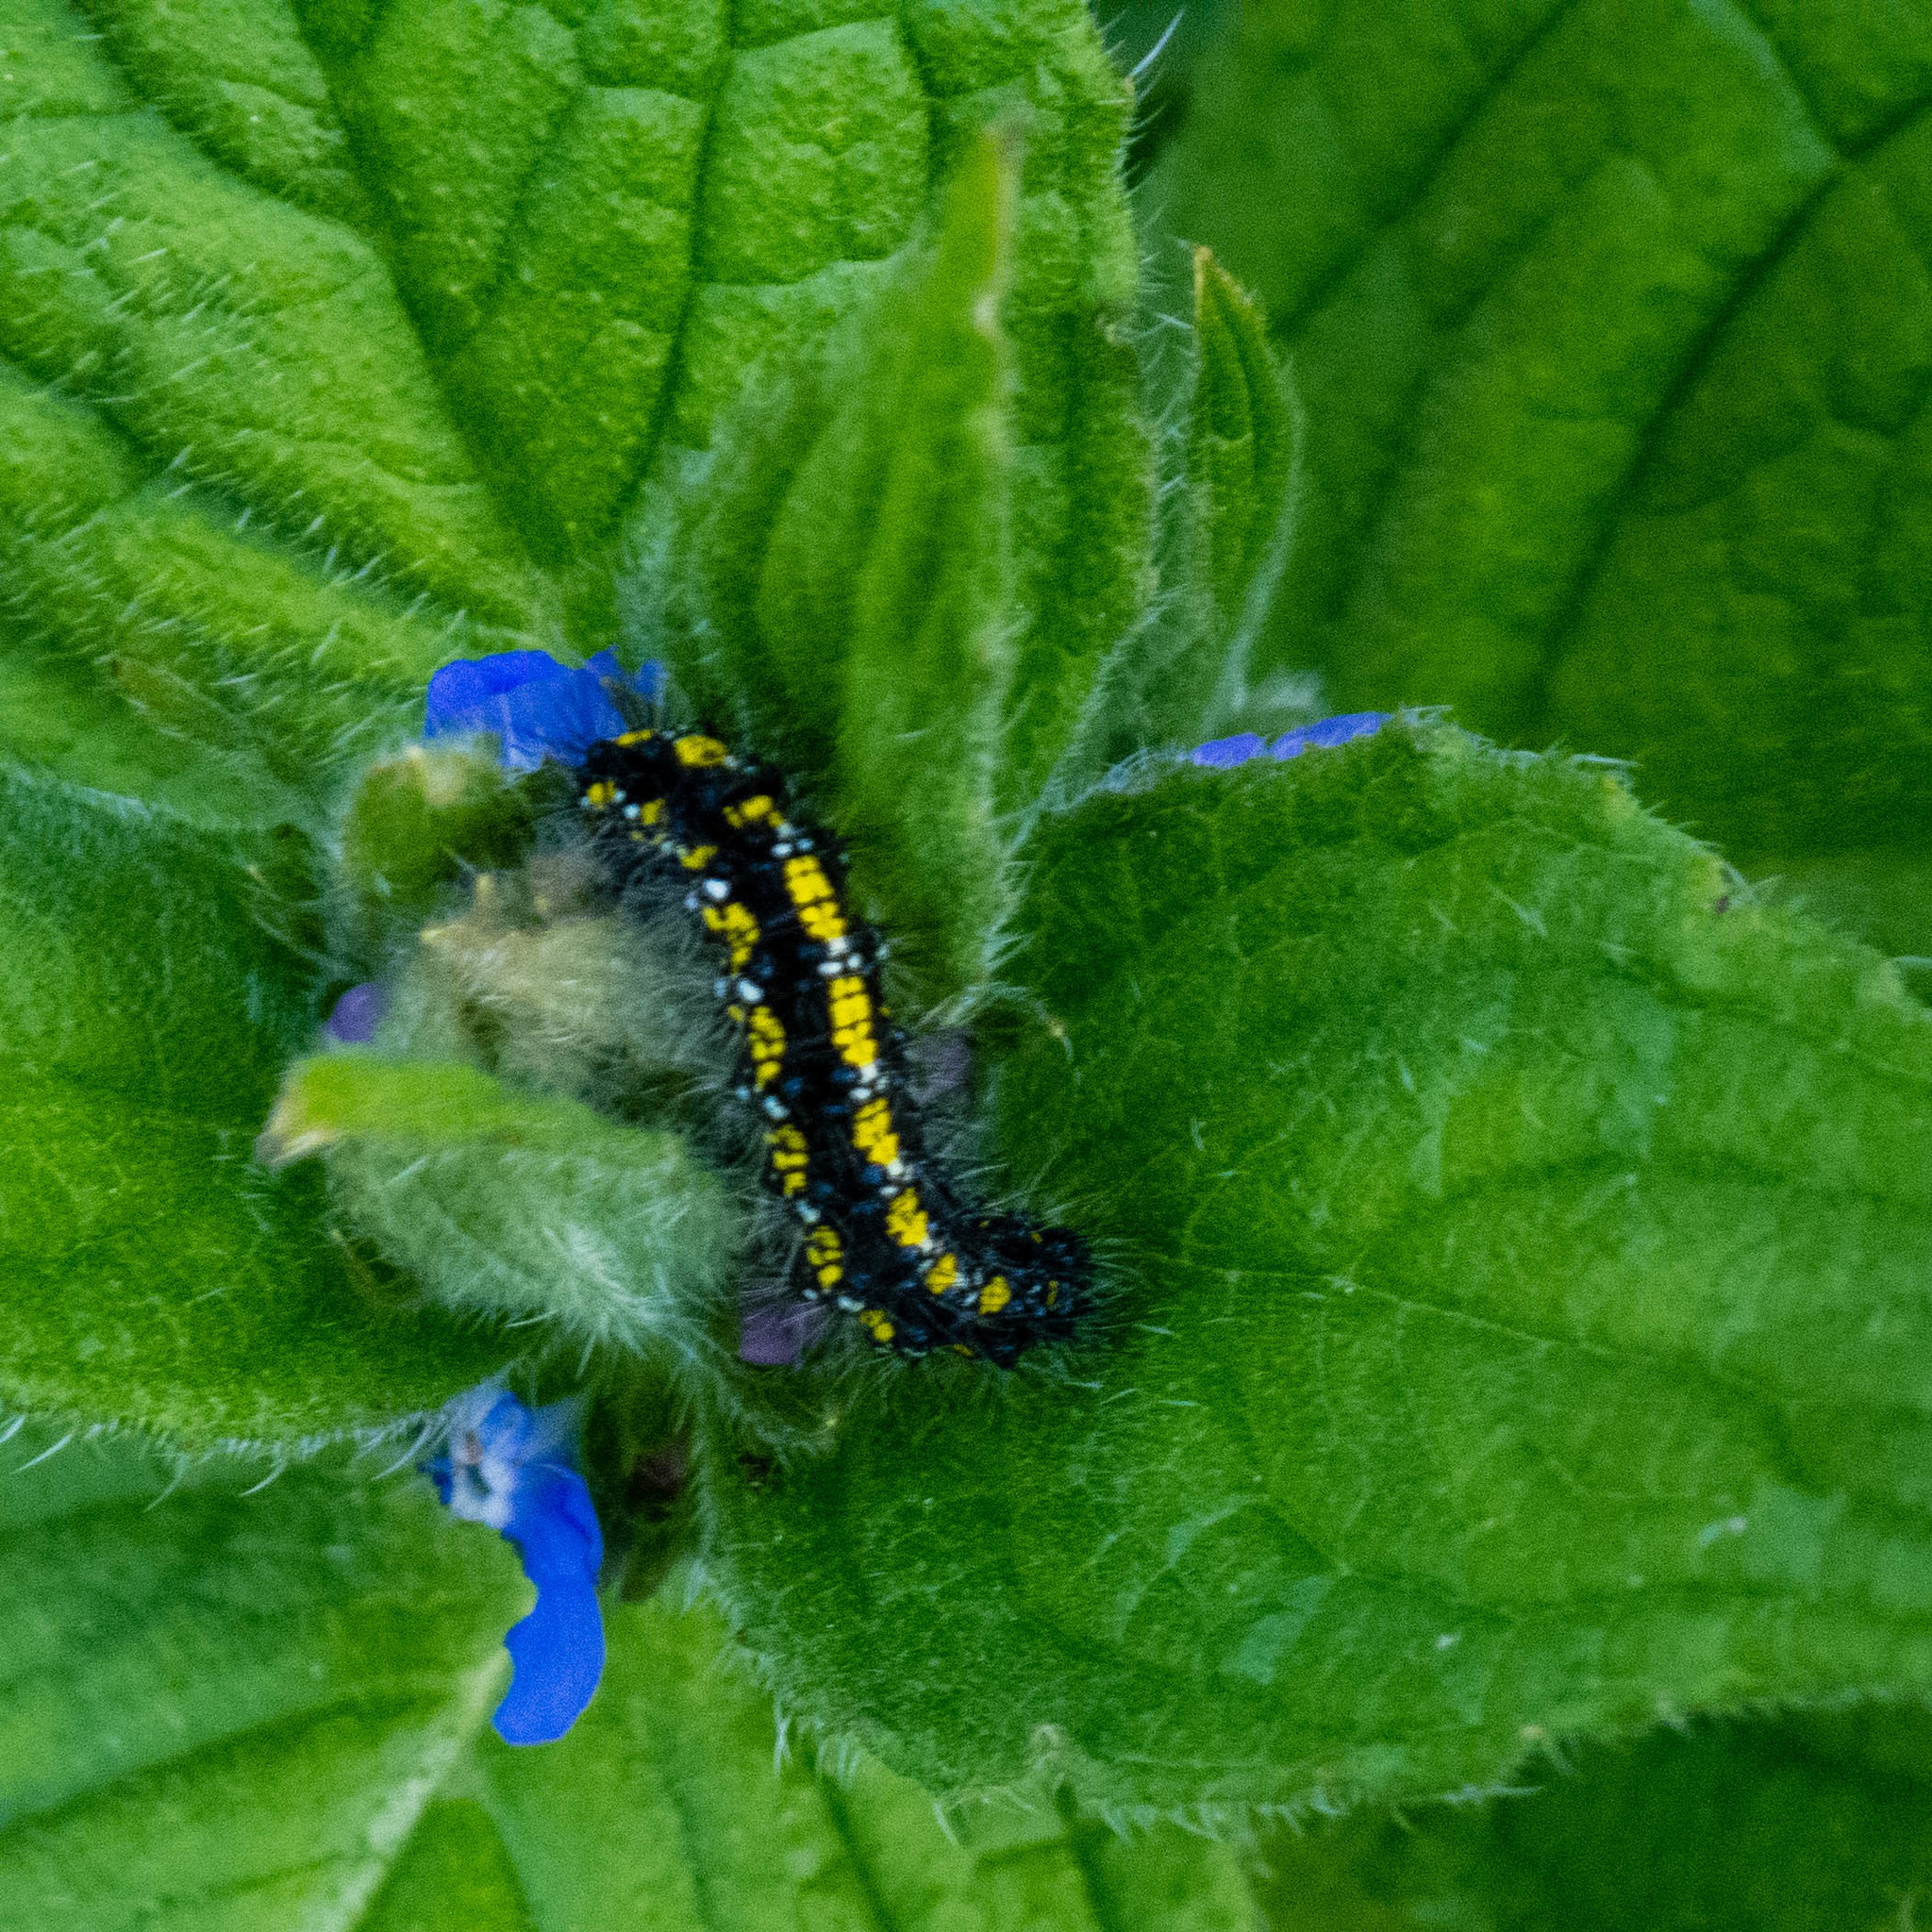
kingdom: Animalia
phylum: Arthropoda
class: Insecta
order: Lepidoptera
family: Erebidae
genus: Callimorpha
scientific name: Callimorpha dominula
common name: Scarlet tiger
